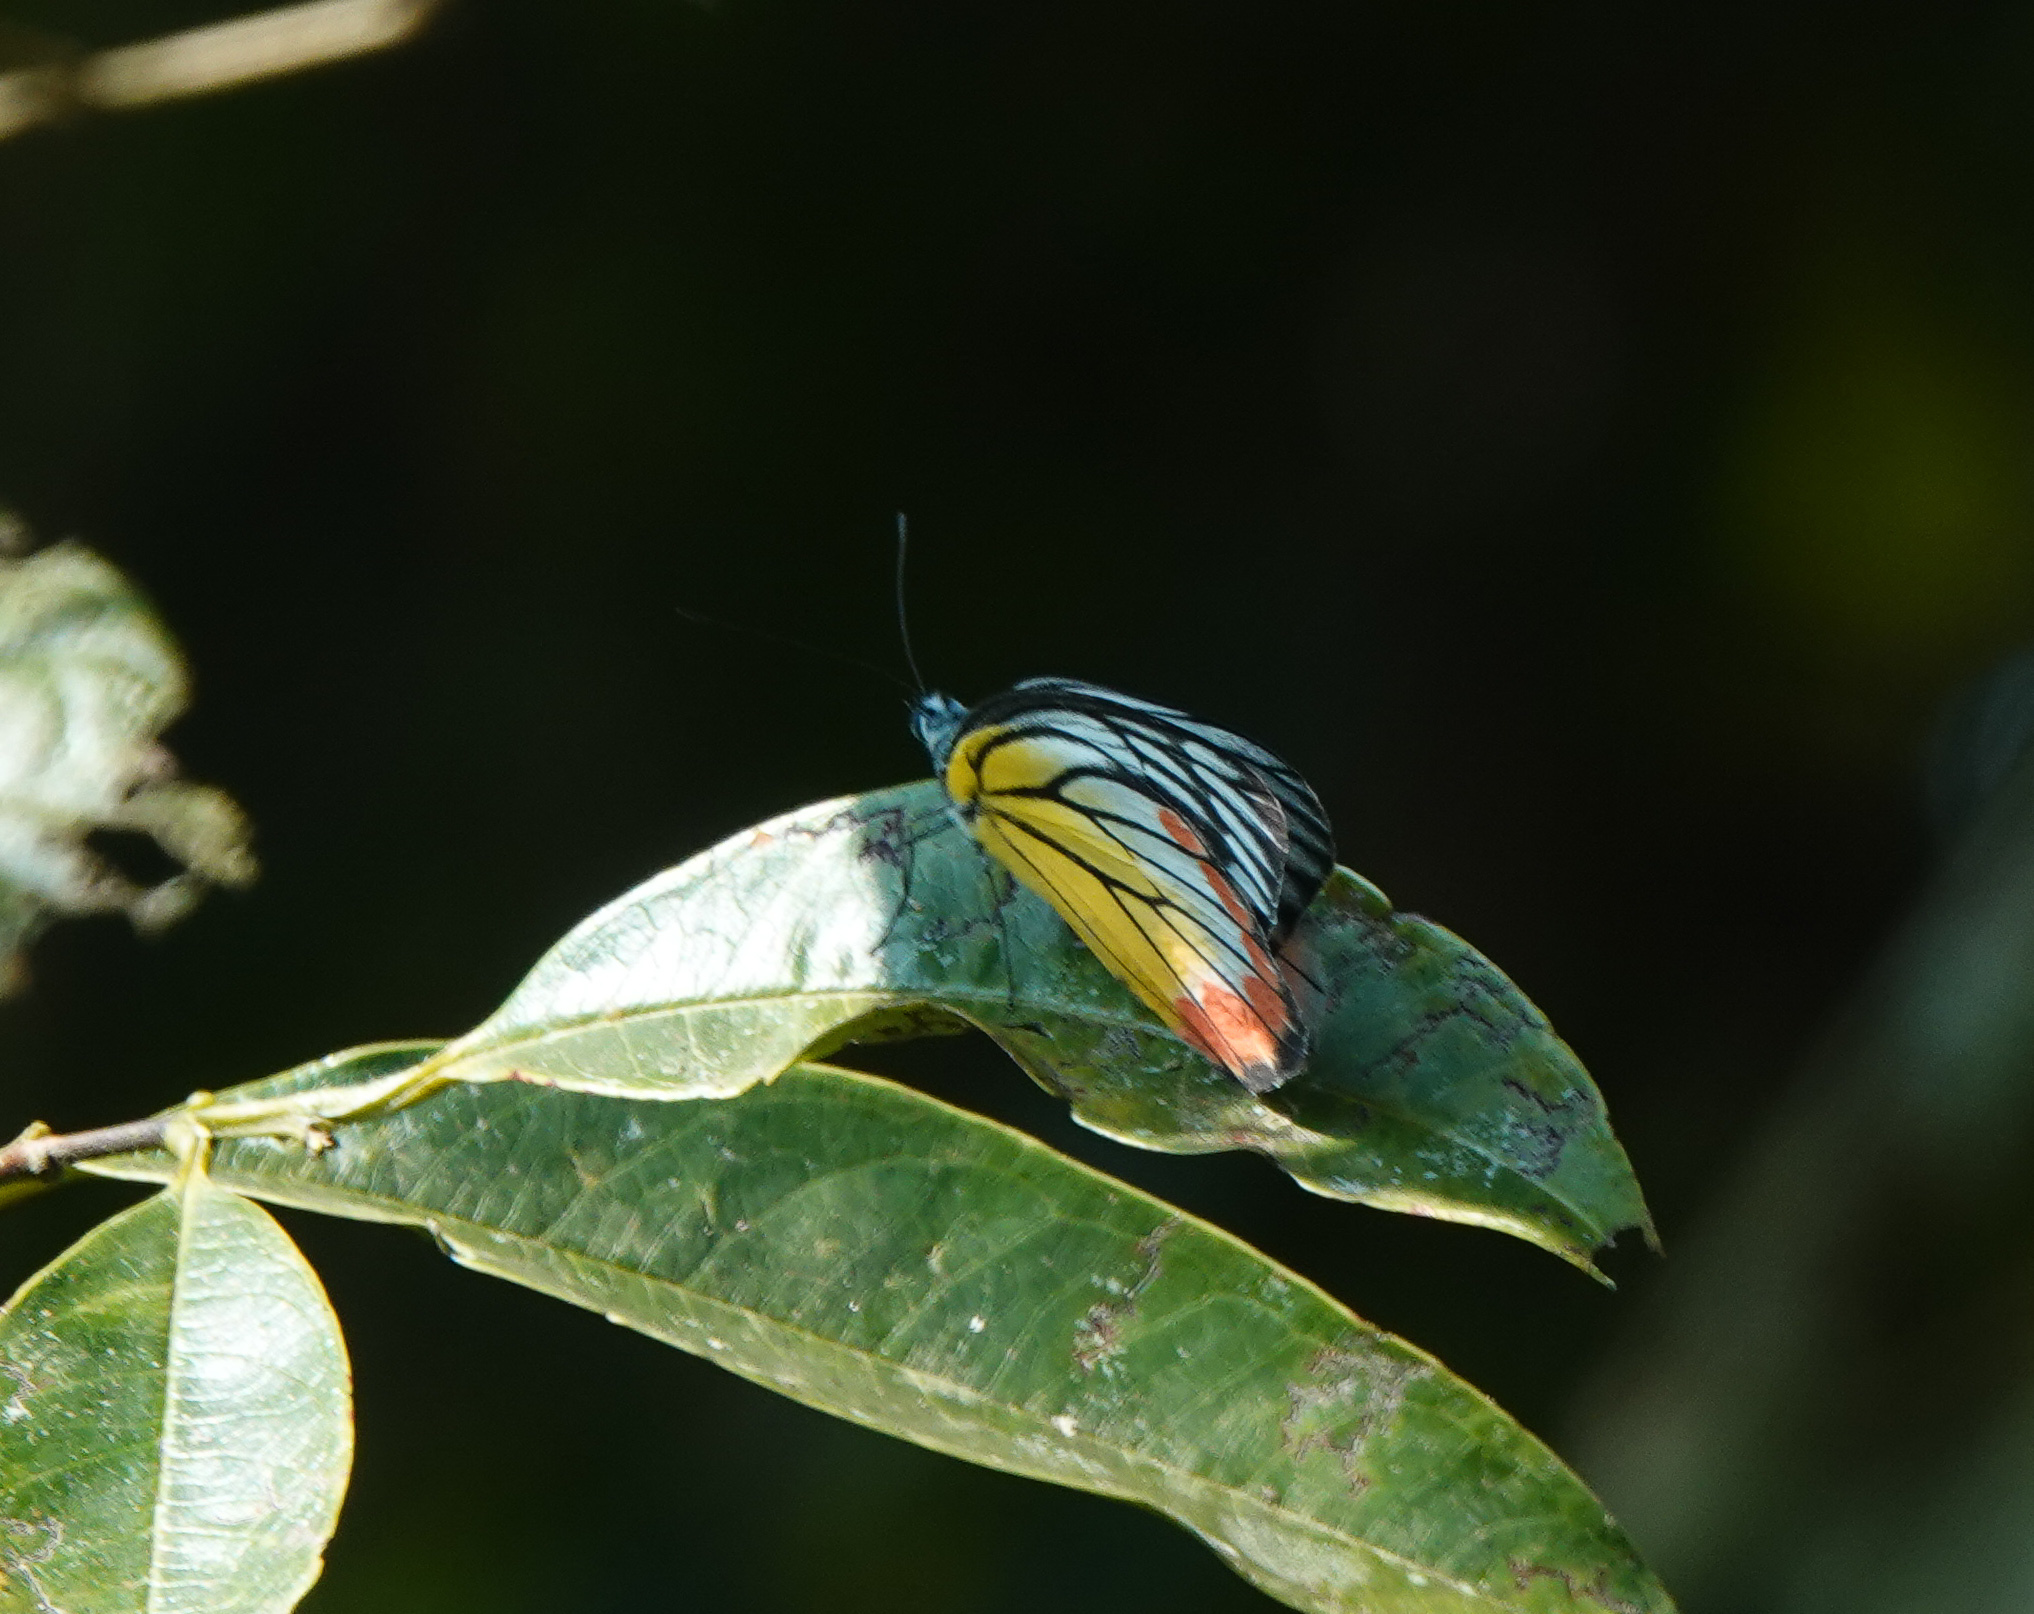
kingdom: Animalia
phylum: Arthropoda
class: Insecta
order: Lepidoptera
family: Pieridae
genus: Delias
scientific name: Delias hyparete
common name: Painted jezebel
